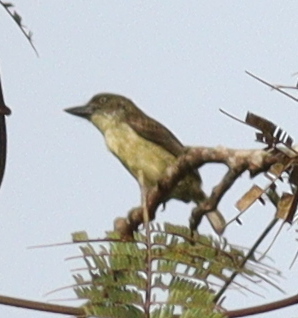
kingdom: Animalia
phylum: Chordata
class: Aves
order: Piciformes
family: Lybiidae
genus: Pogoniulus
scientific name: Pogoniulus scolopaceus
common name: Speckled tinkerbird
